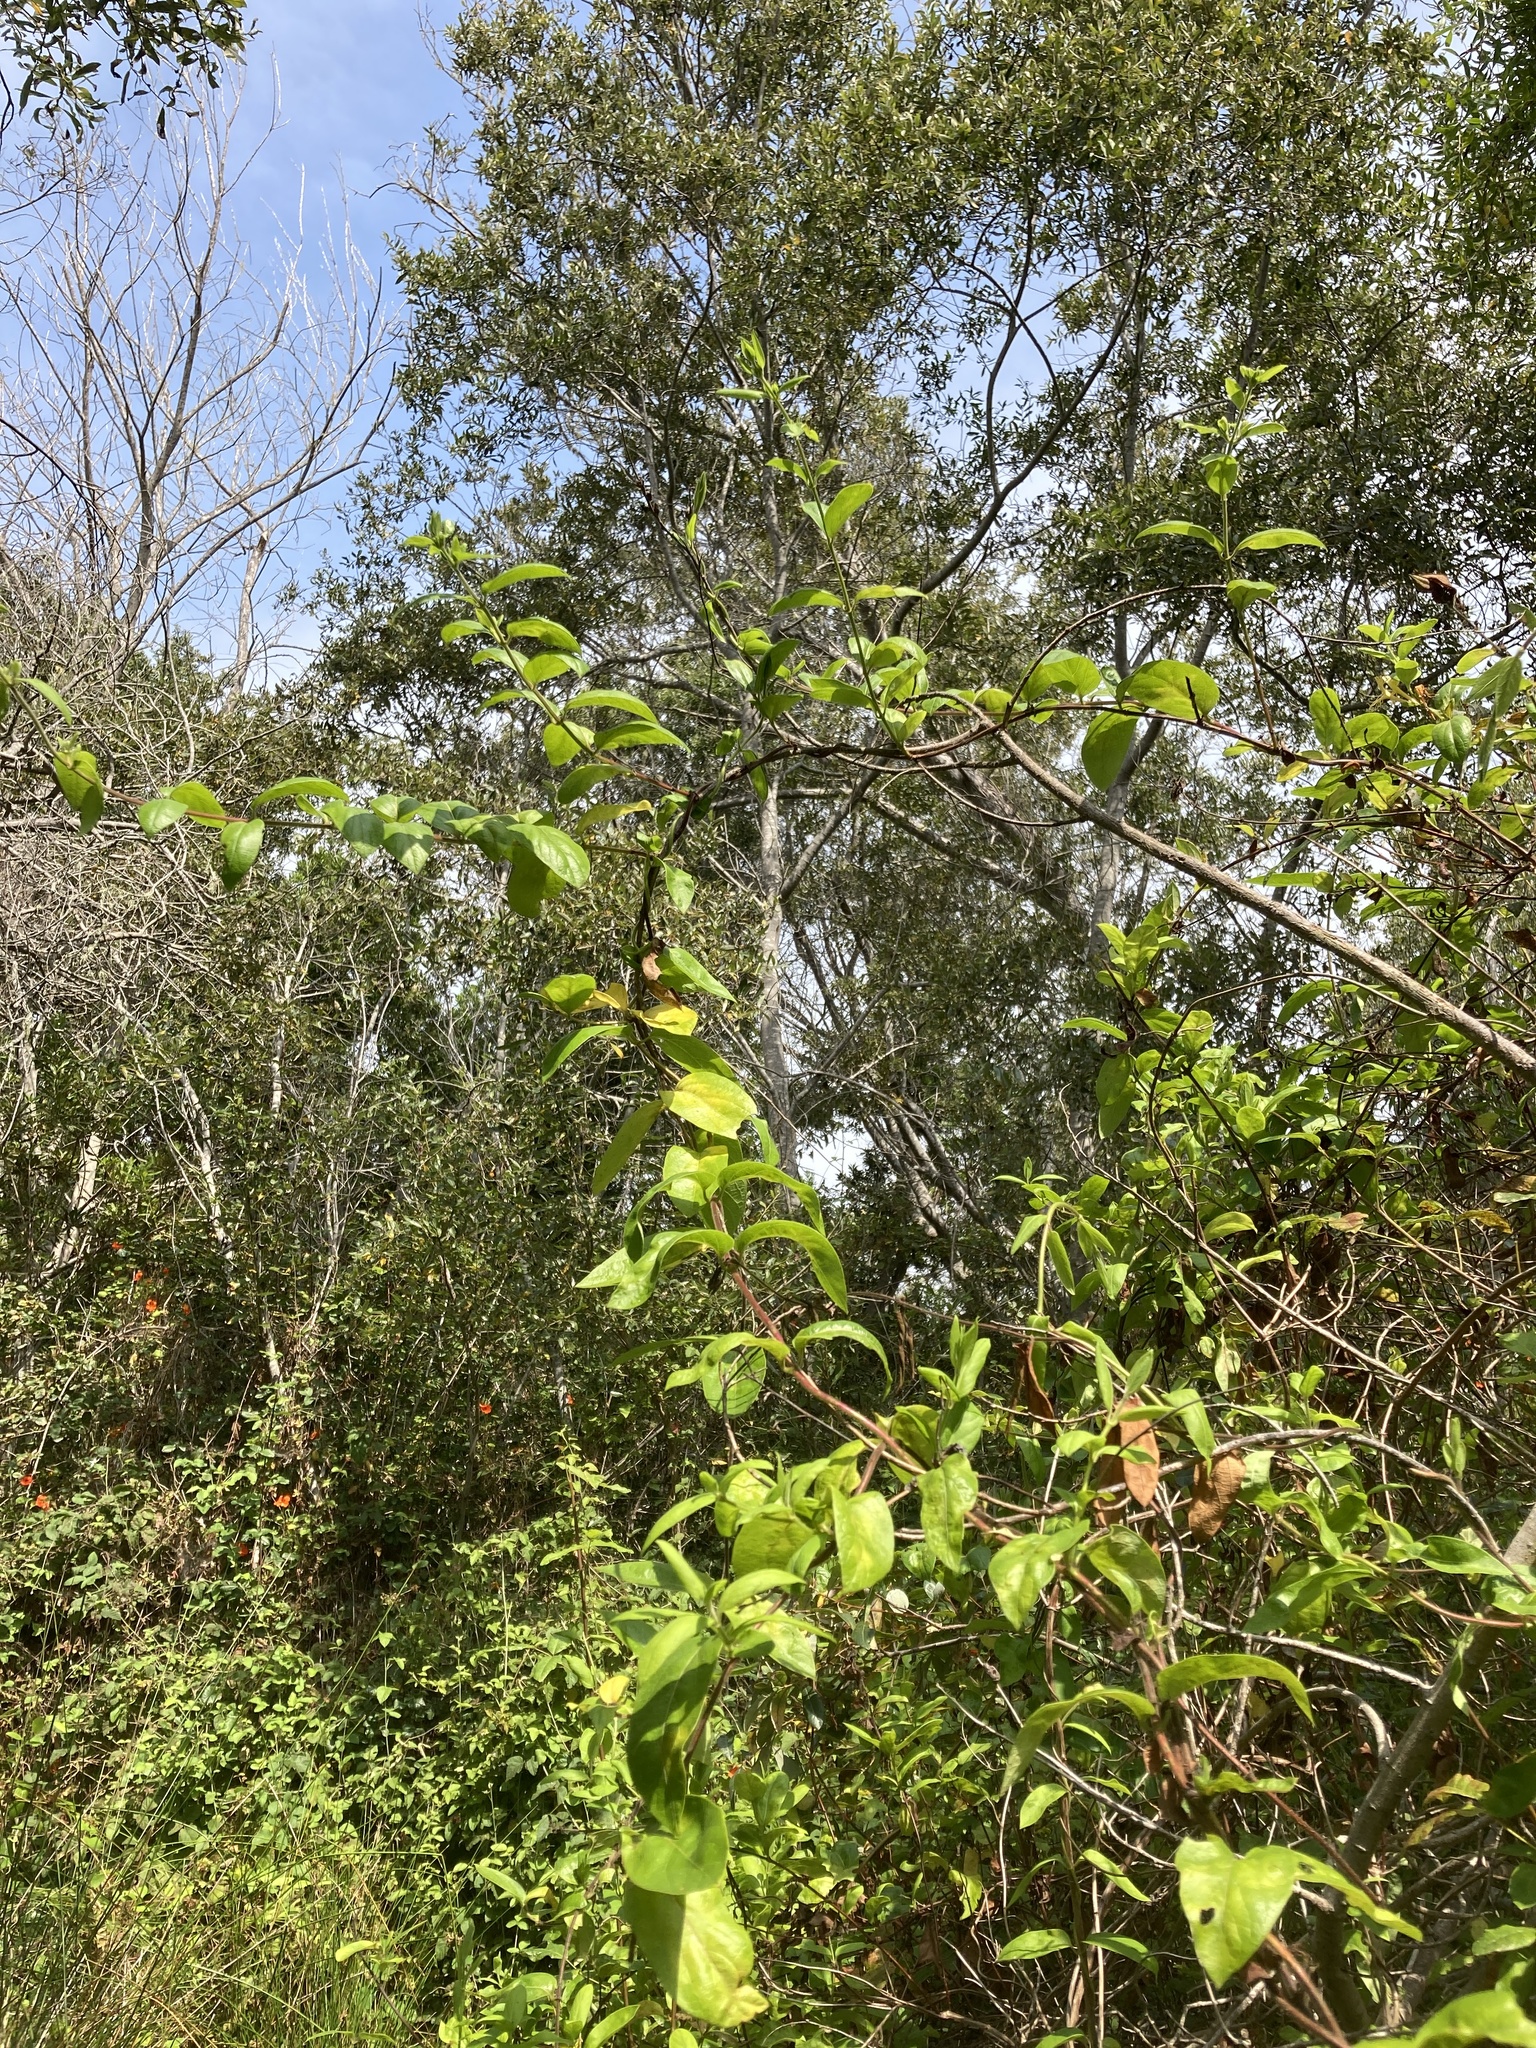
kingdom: Plantae
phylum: Tracheophyta
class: Magnoliopsida
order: Dipsacales
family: Caprifoliaceae
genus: Lonicera
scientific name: Lonicera japonica
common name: Japanese honeysuckle
